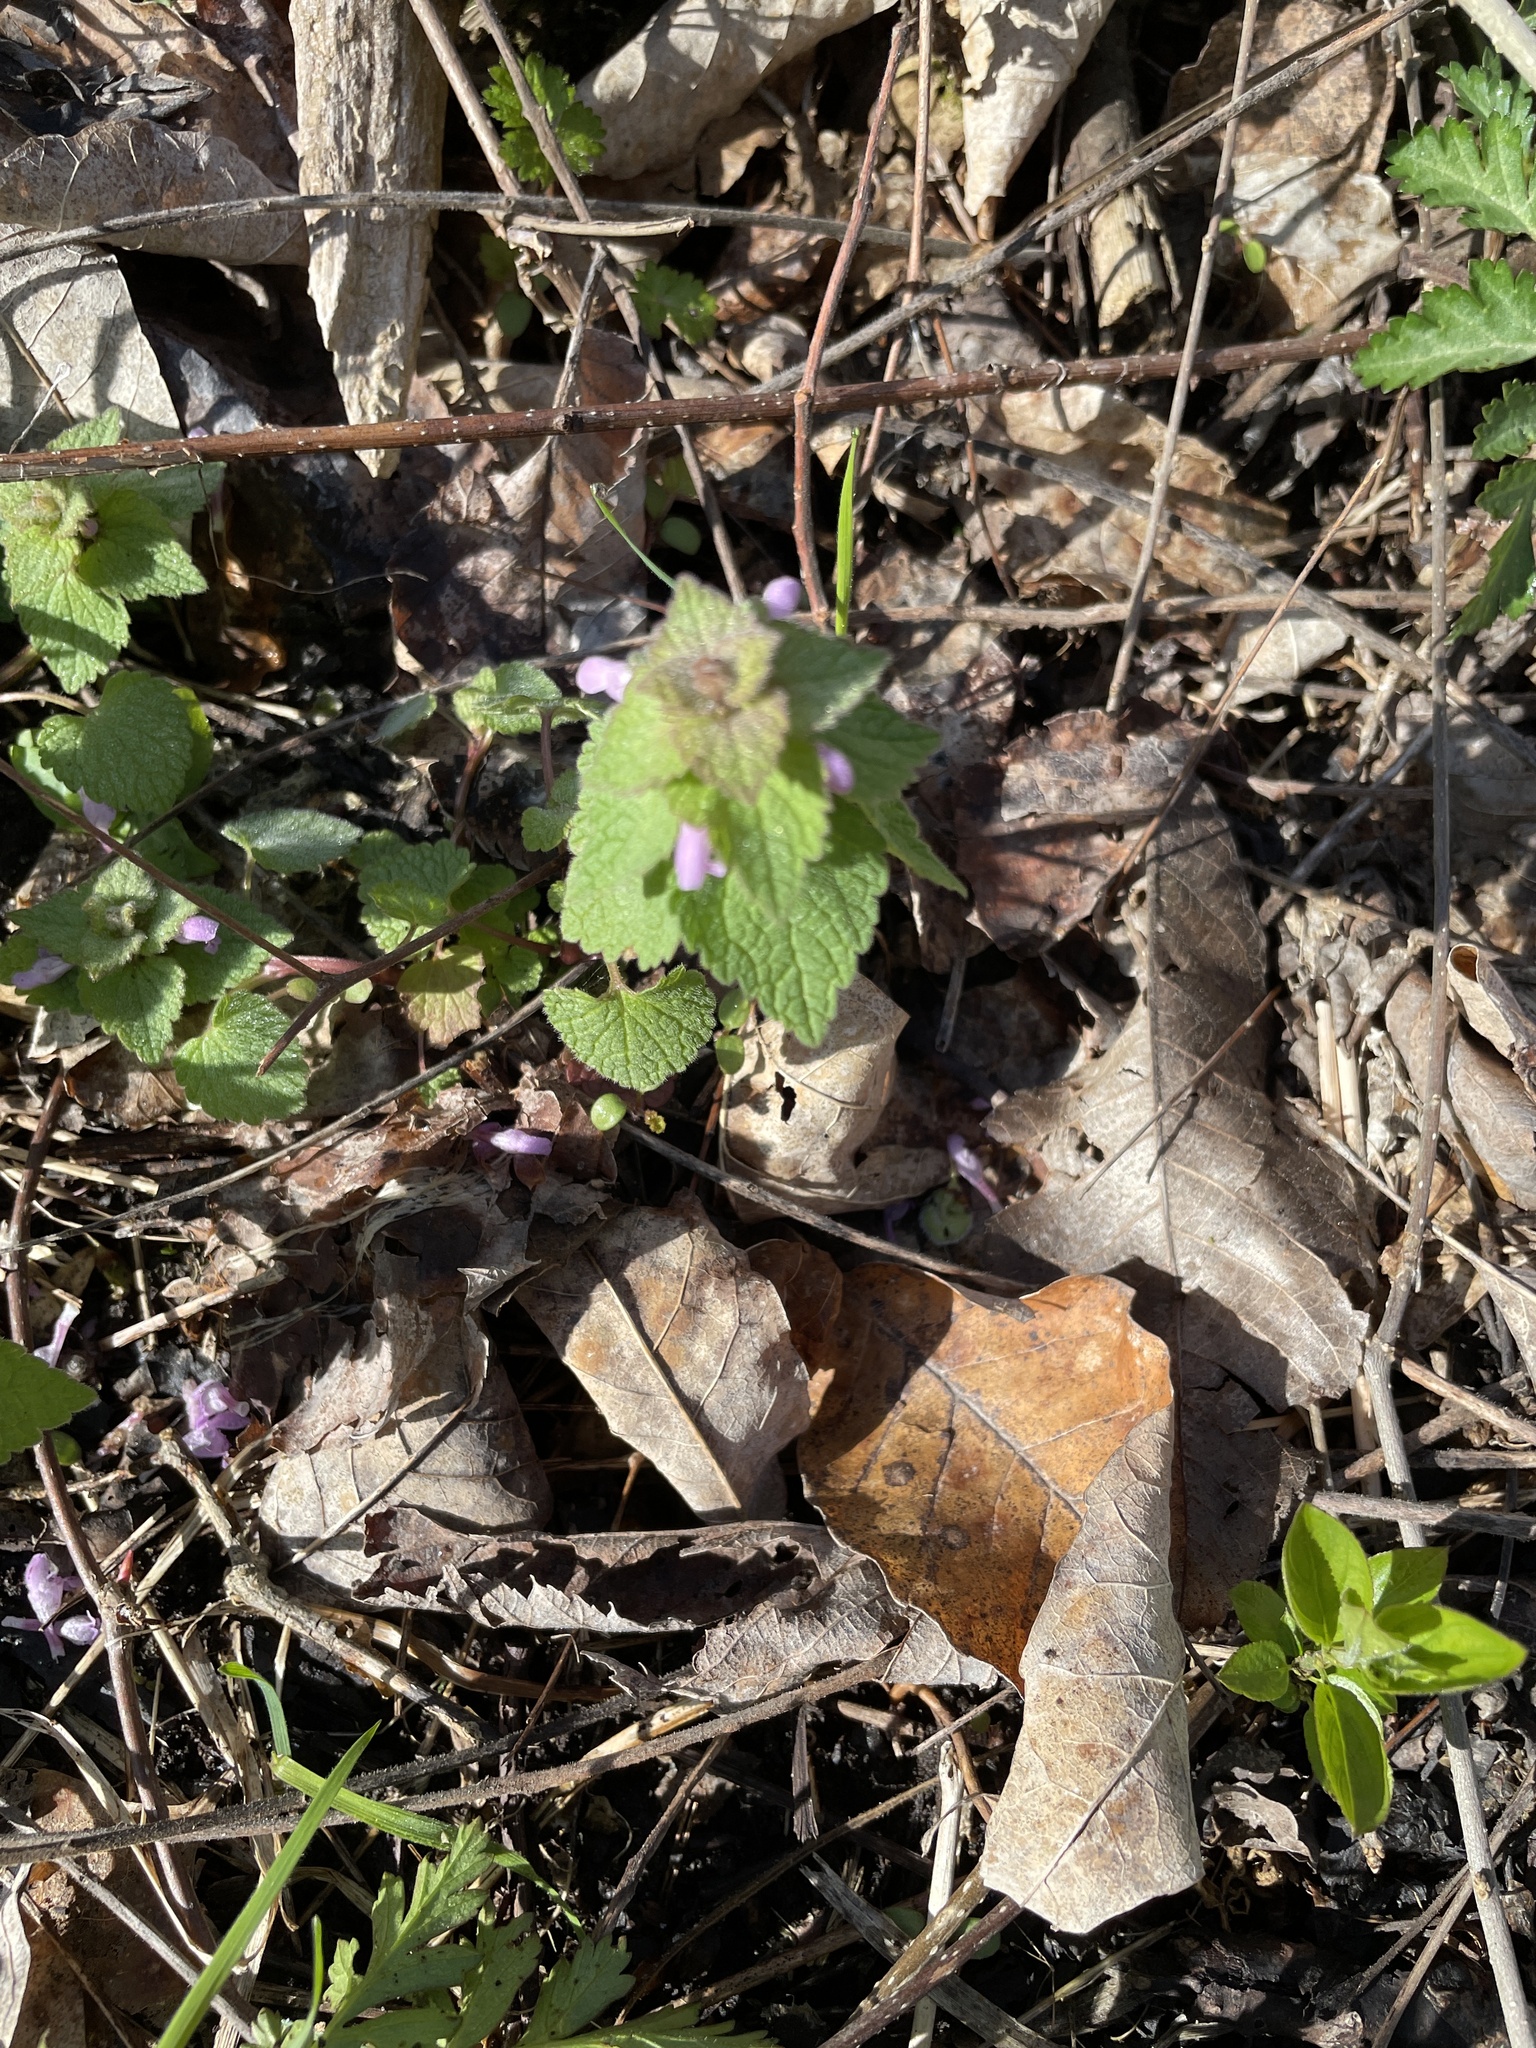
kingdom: Plantae
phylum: Tracheophyta
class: Magnoliopsida
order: Lamiales
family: Lamiaceae
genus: Lamium
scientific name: Lamium purpureum
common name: Red dead-nettle
